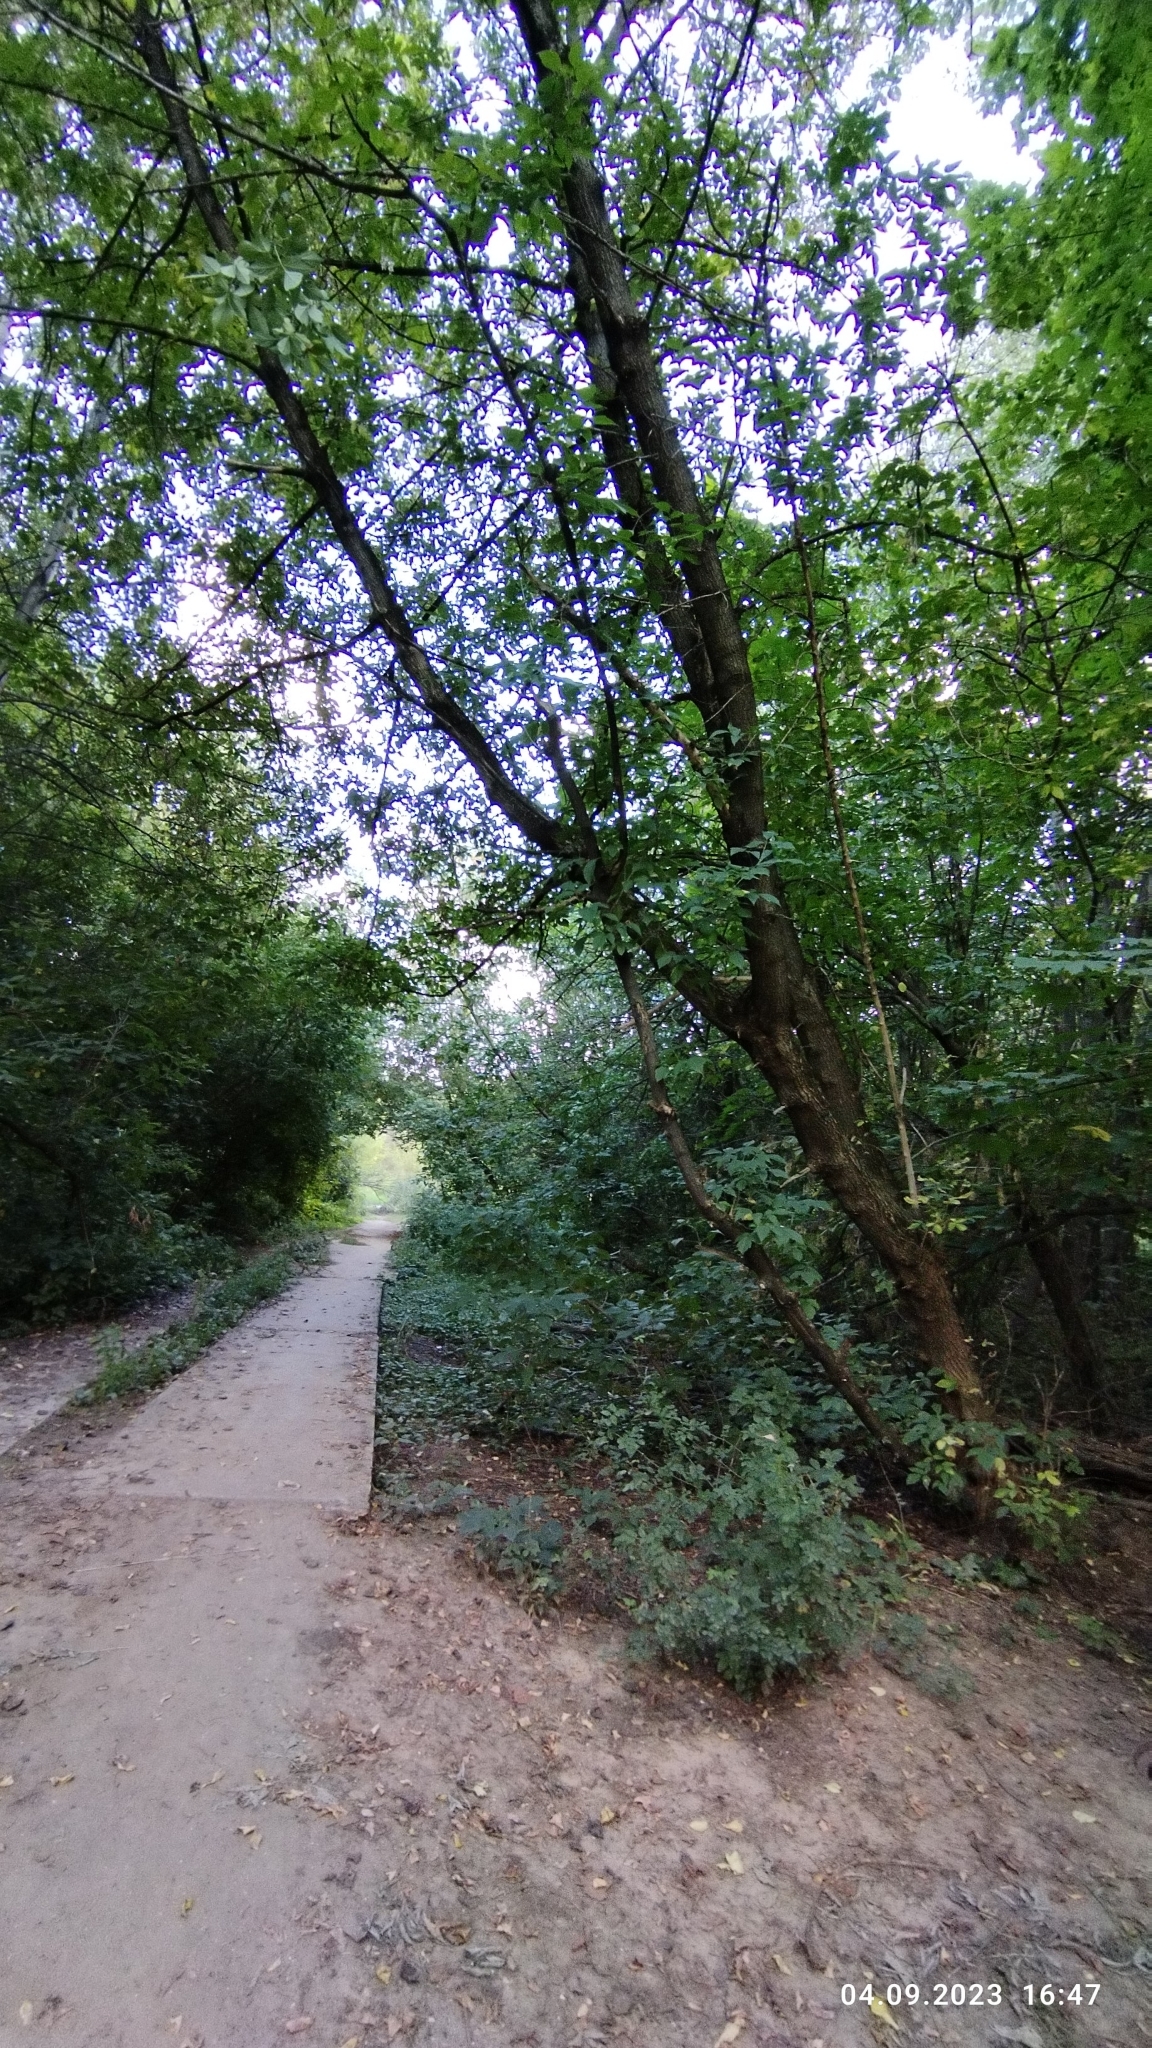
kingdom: Plantae
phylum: Tracheophyta
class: Magnoliopsida
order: Sapindales
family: Sapindaceae
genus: Acer
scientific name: Acer negundo
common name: Ashleaf maple
